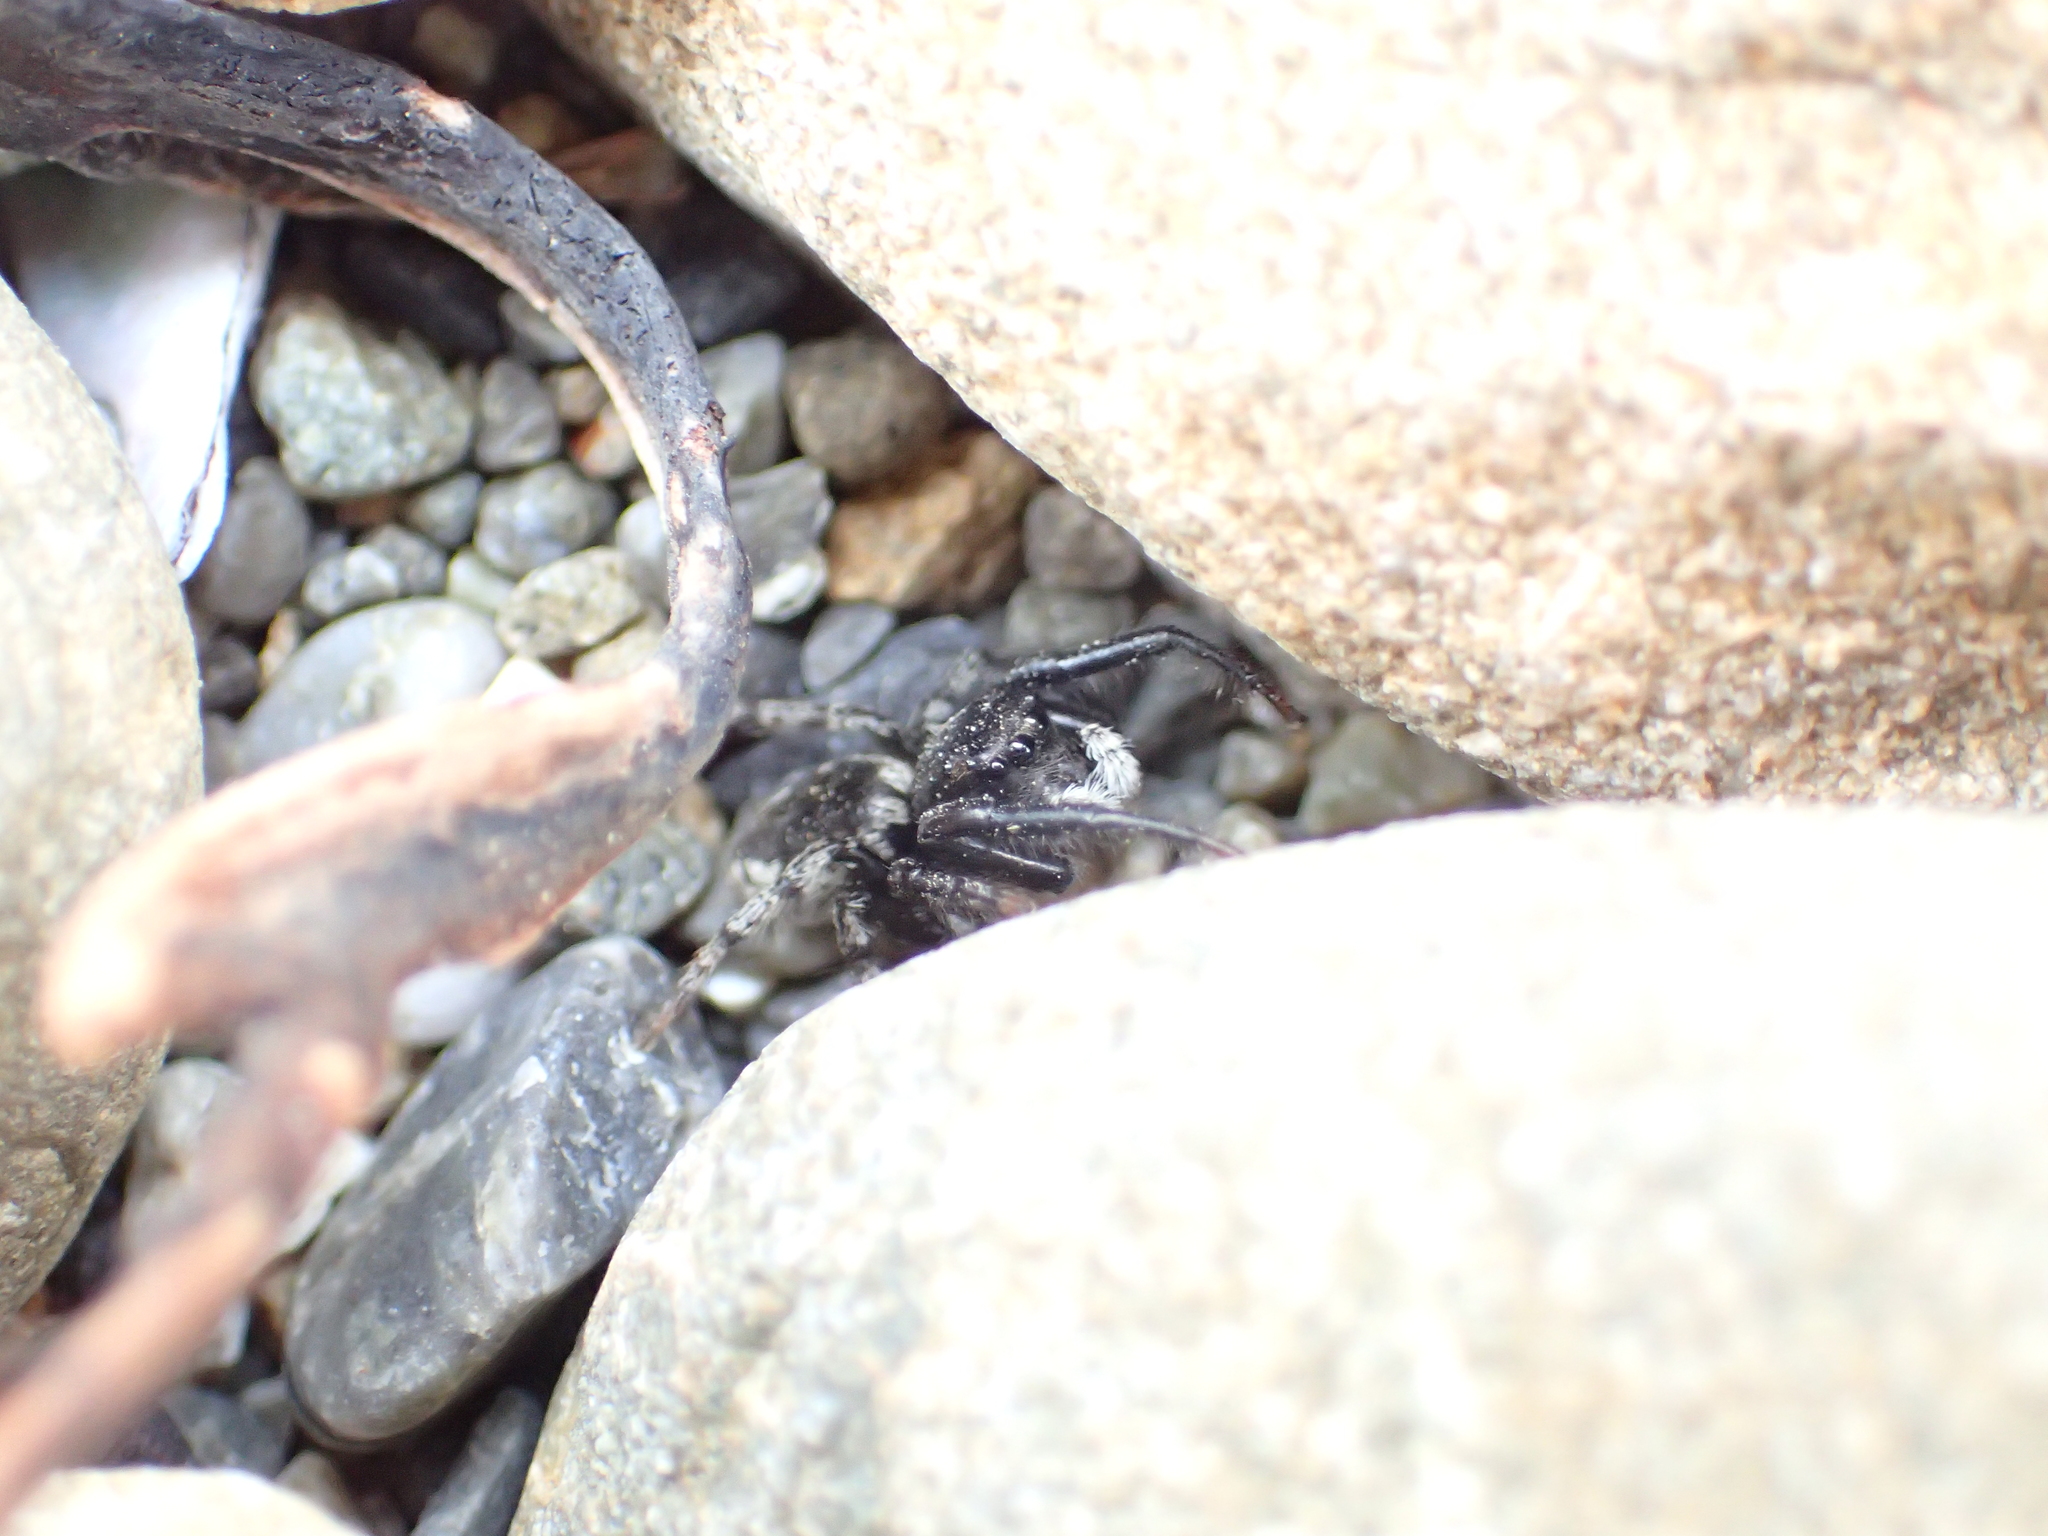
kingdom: Animalia
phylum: Arthropoda
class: Arachnida
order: Araneae
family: Salticidae
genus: Marpissa
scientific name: Marpissa marina
